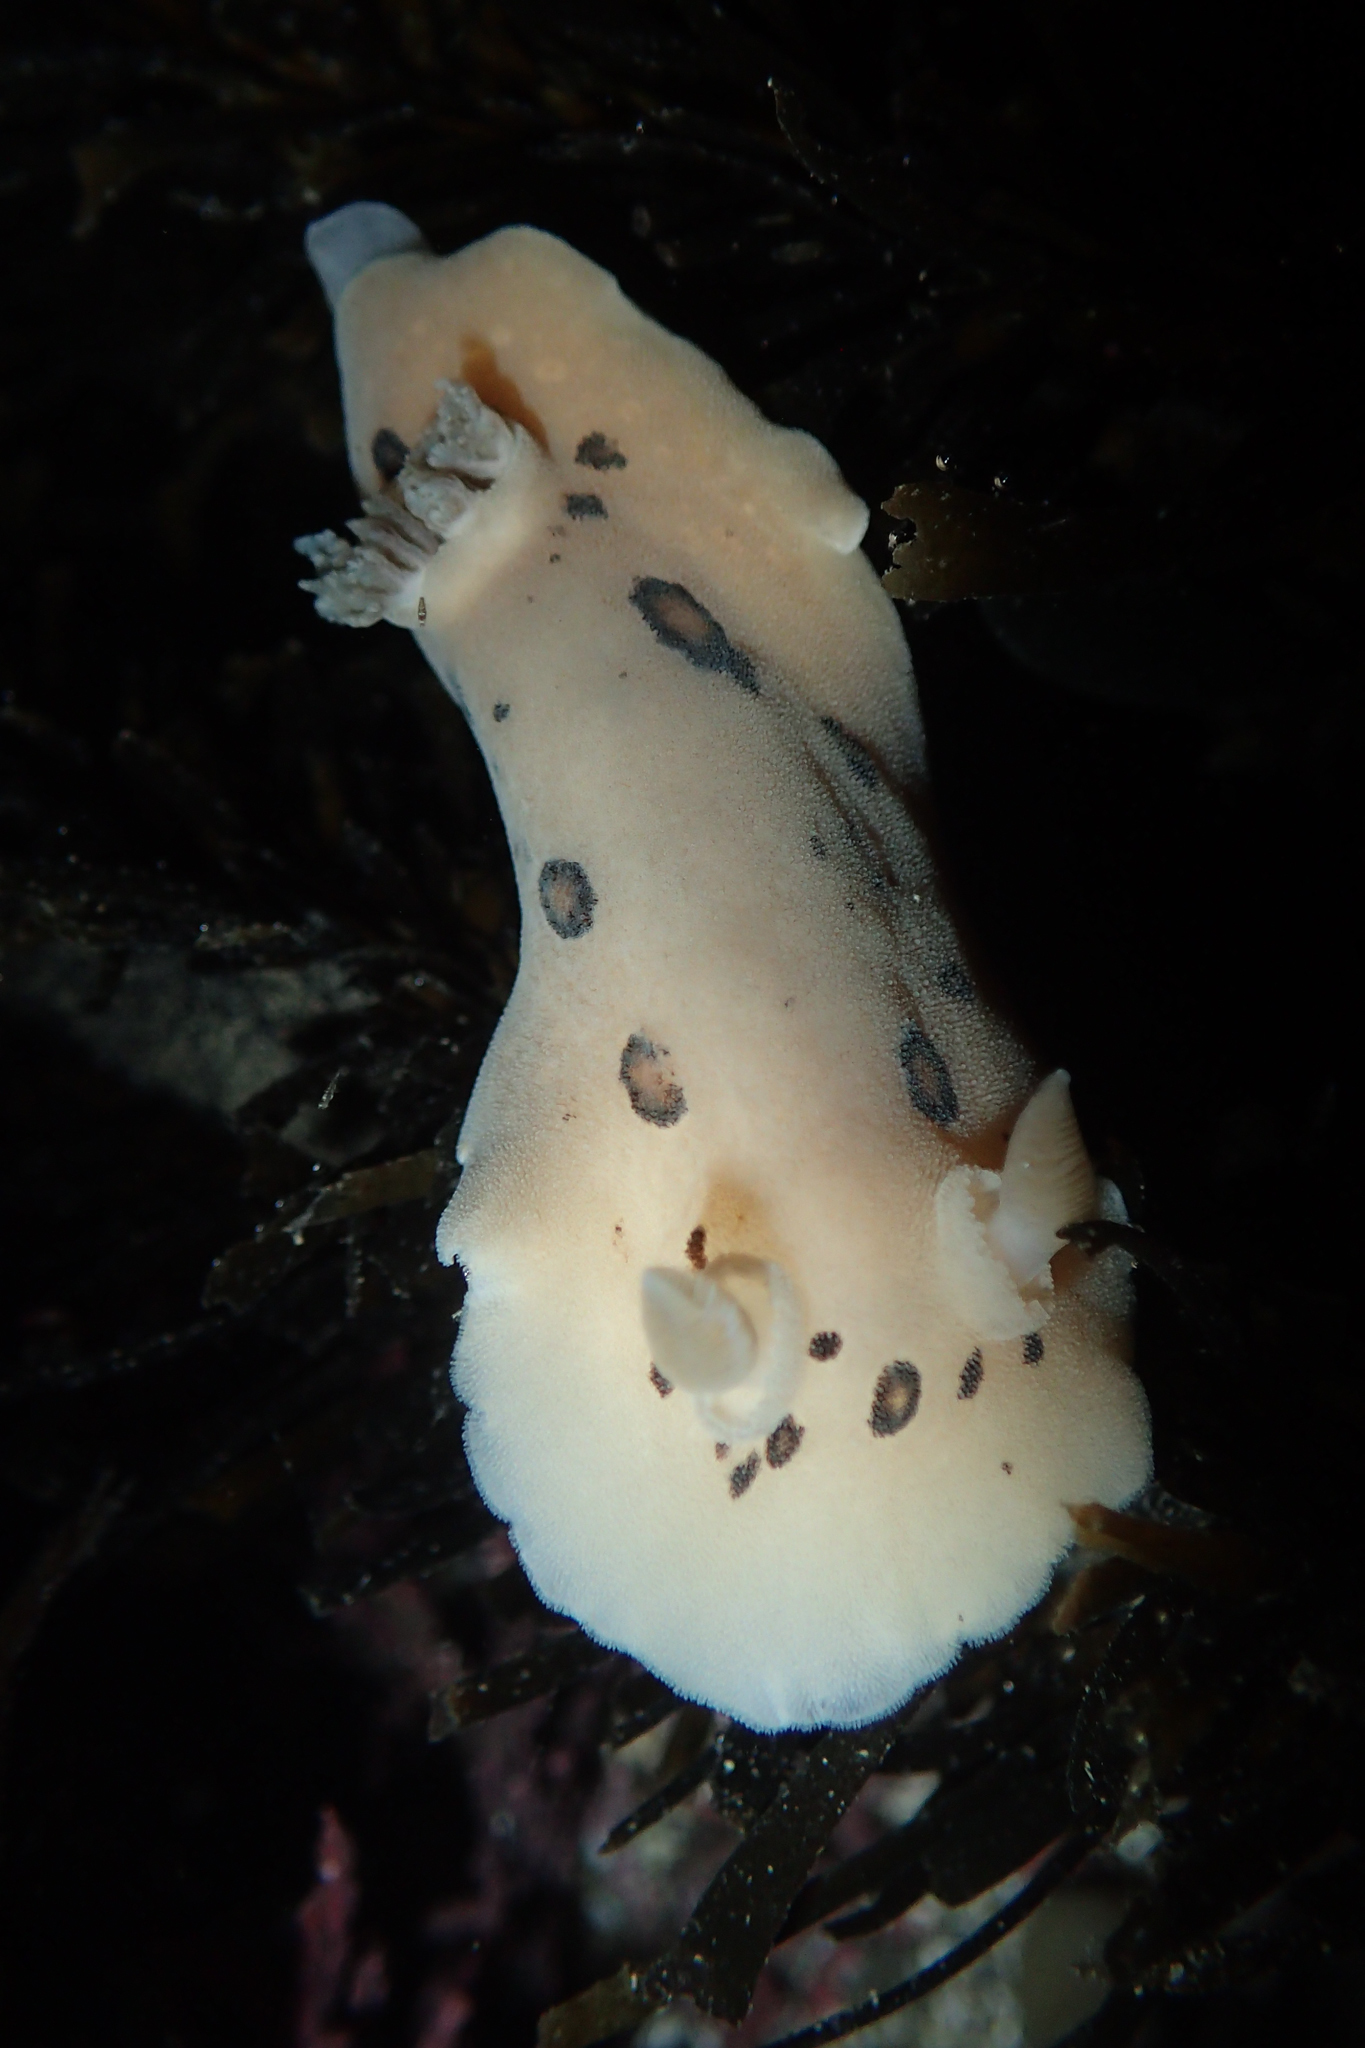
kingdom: Animalia
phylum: Mollusca
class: Gastropoda
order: Nudibranchia
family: Discodorididae
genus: Diaulula
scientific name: Diaulula sandiegensis
